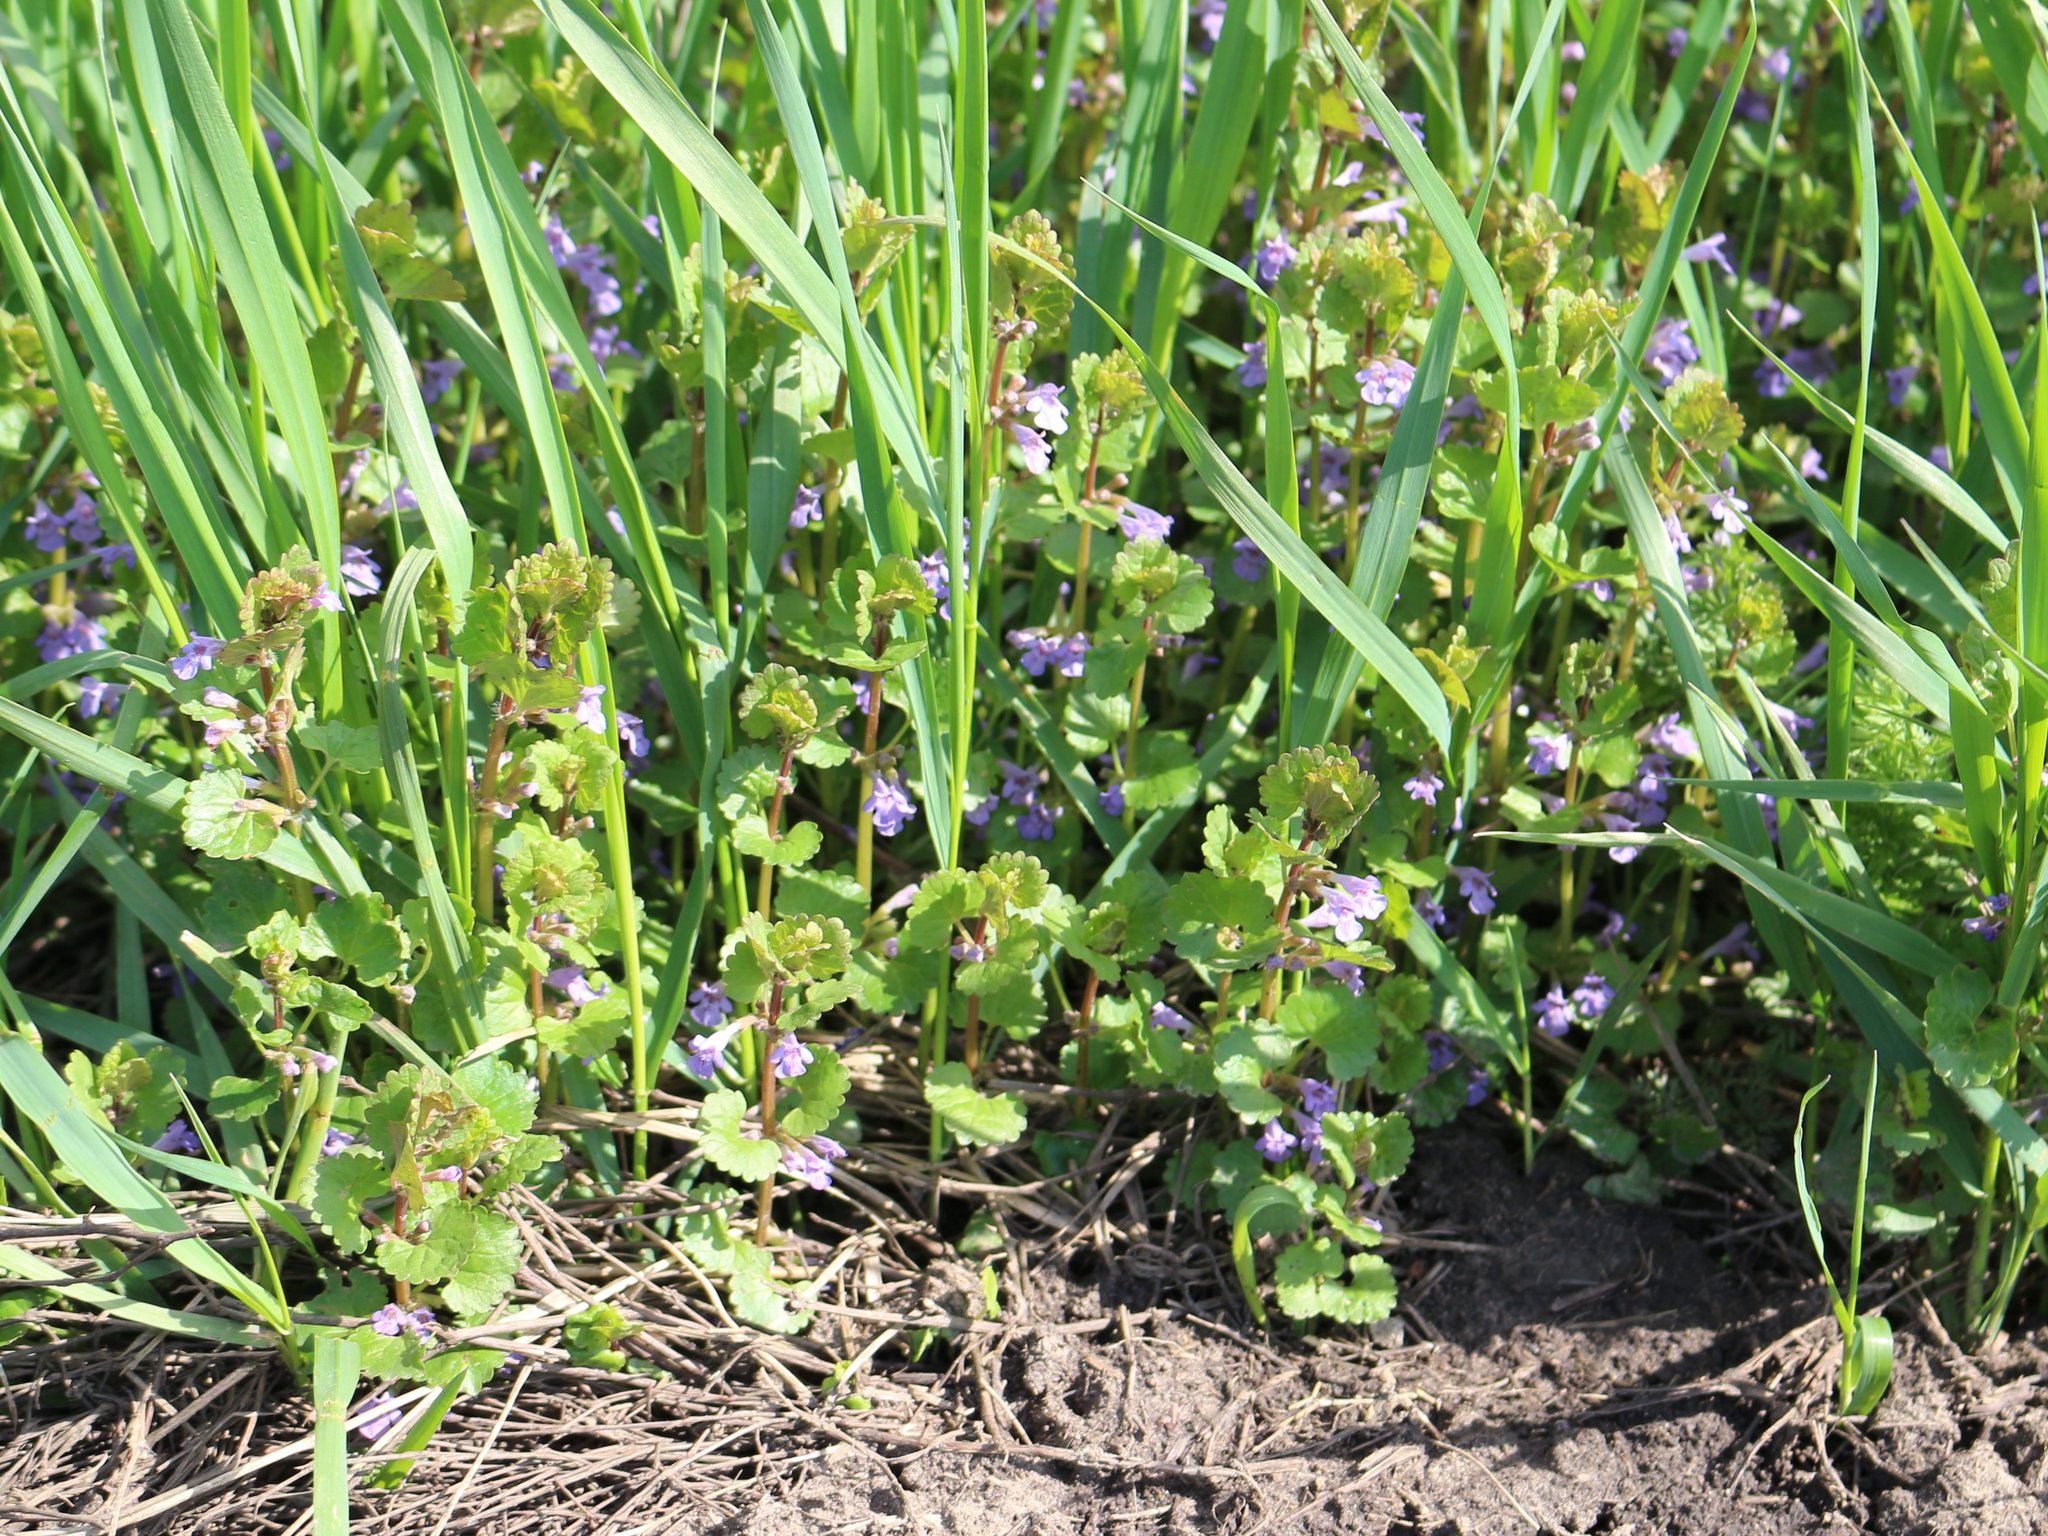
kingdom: Plantae
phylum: Tracheophyta
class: Magnoliopsida
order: Lamiales
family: Lamiaceae
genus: Glechoma
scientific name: Glechoma hederacea
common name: Ground ivy
